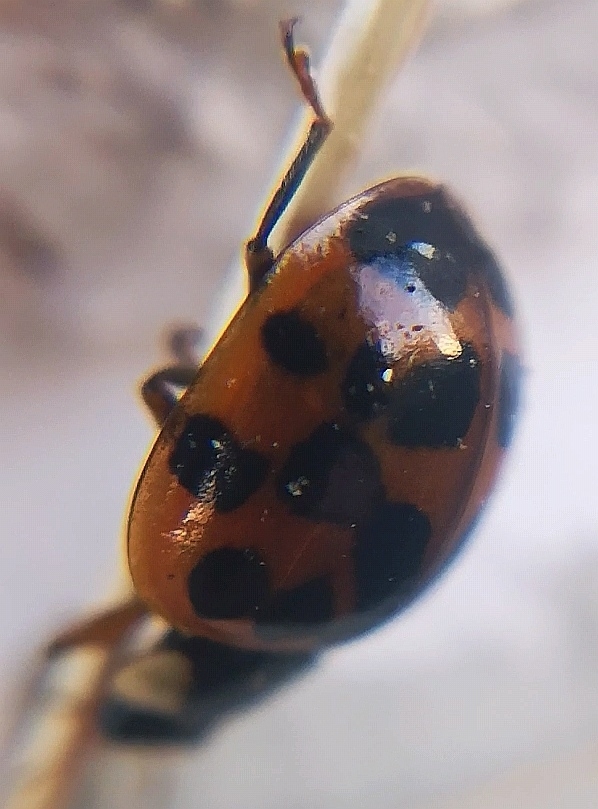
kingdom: Animalia
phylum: Arthropoda
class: Insecta
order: Coleoptera
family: Coccinellidae
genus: Harmonia
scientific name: Harmonia axyridis
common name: Harlequin ladybird
